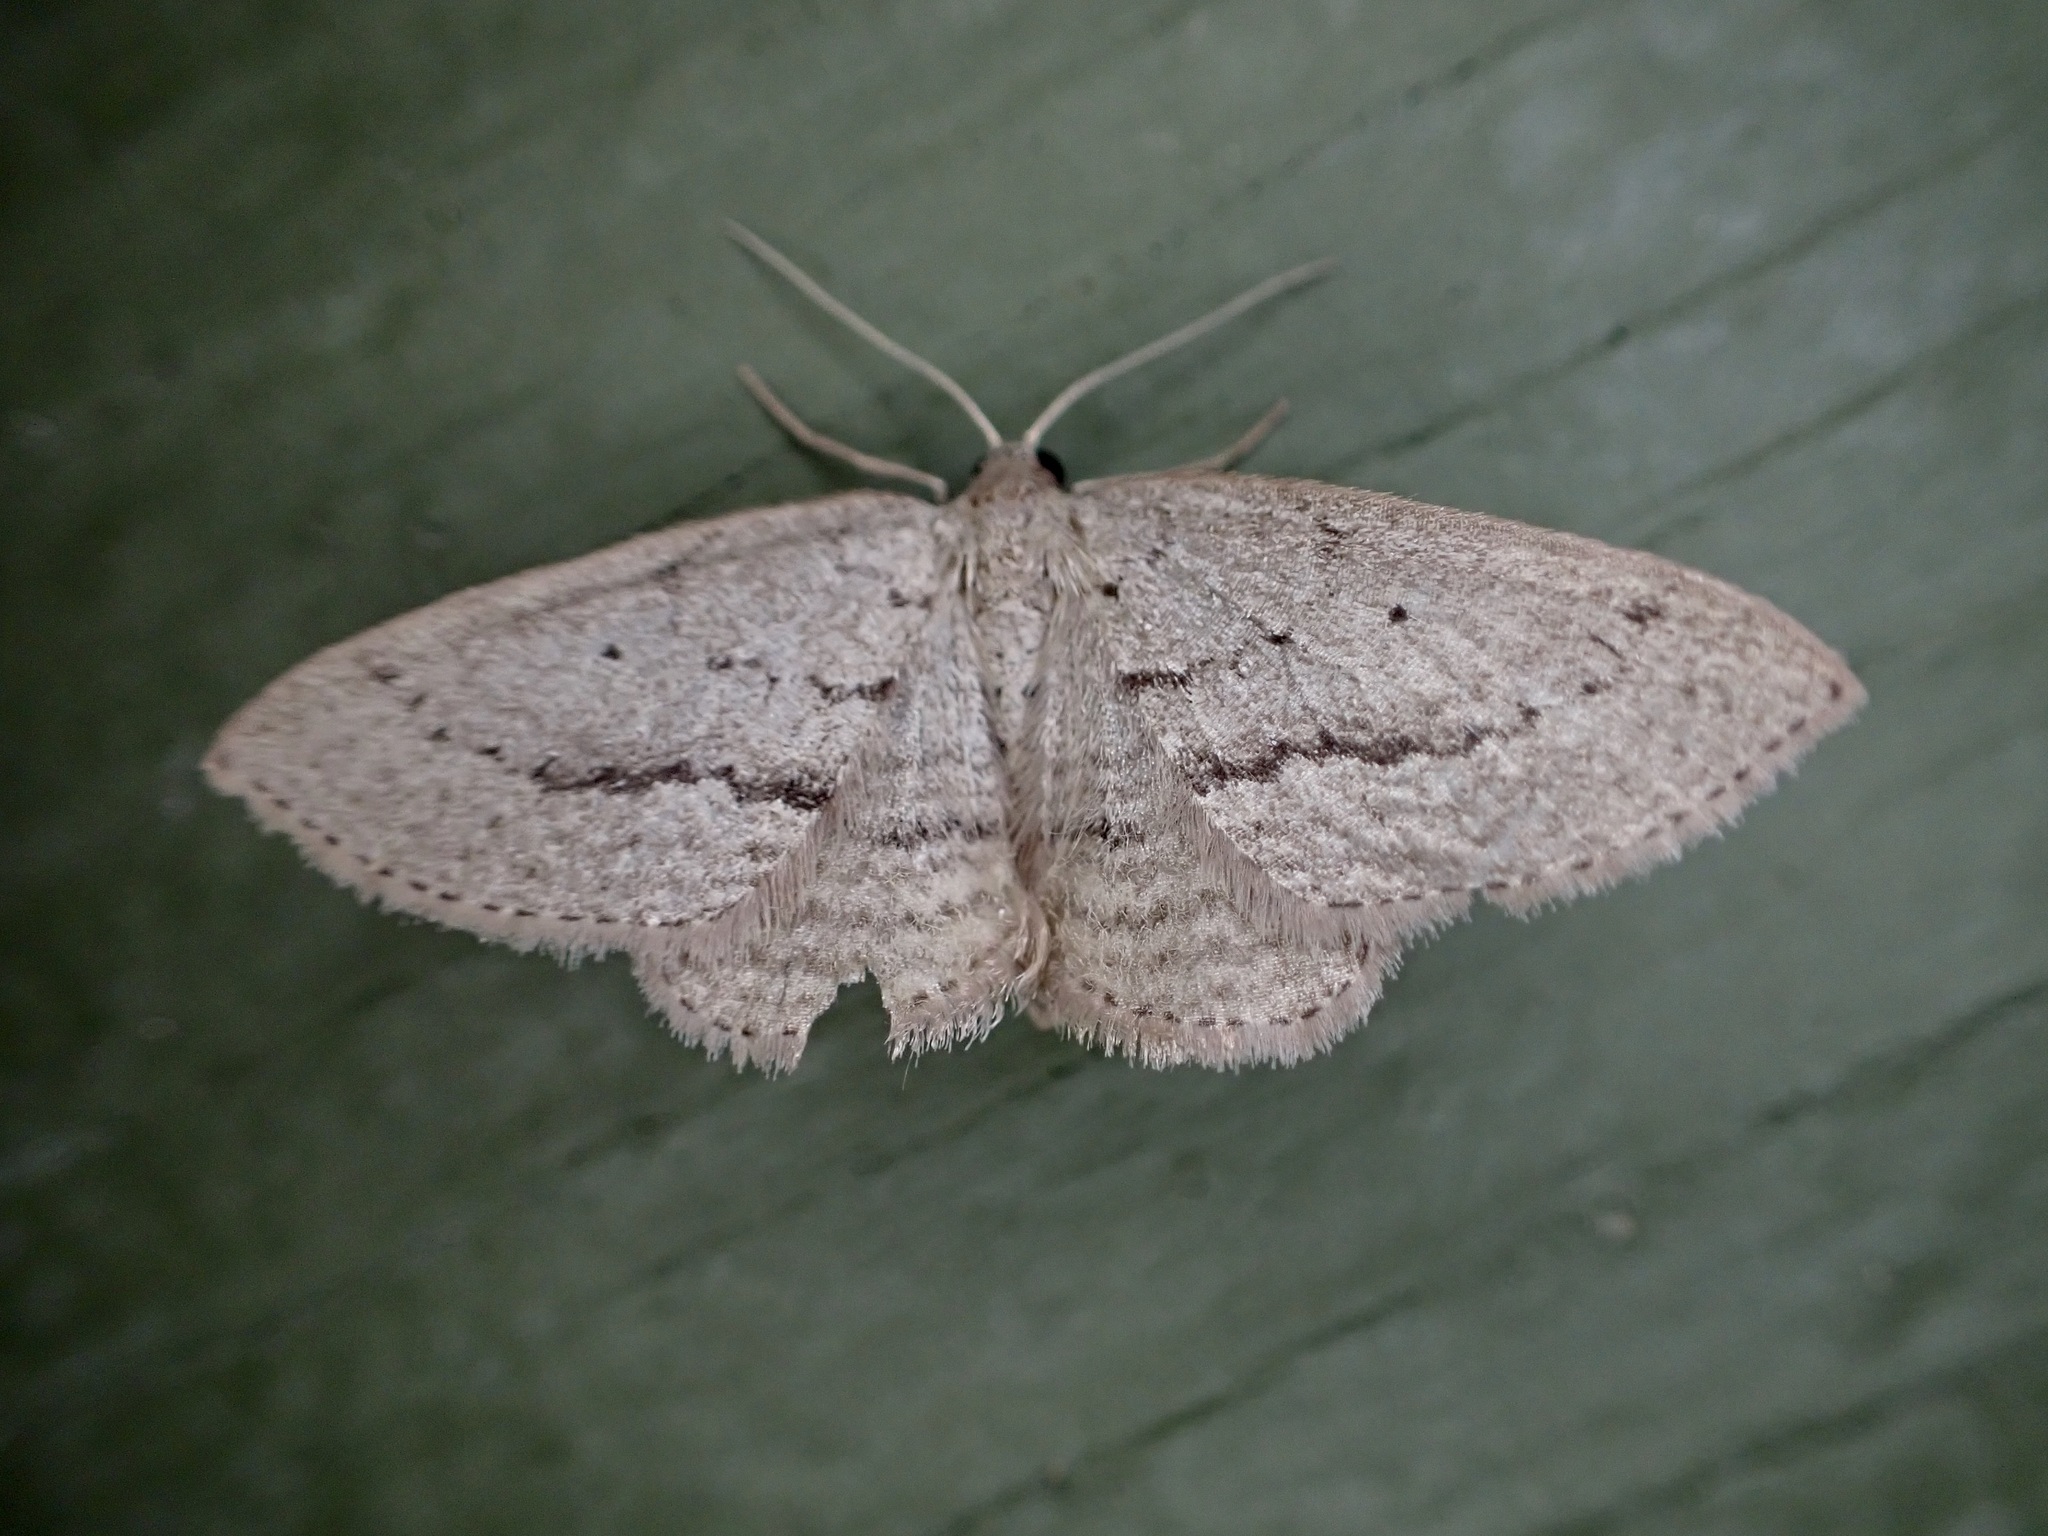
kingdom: Animalia
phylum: Arthropoda
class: Insecta
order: Lepidoptera
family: Geometridae
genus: Poecilasthena
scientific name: Poecilasthena schistaria
